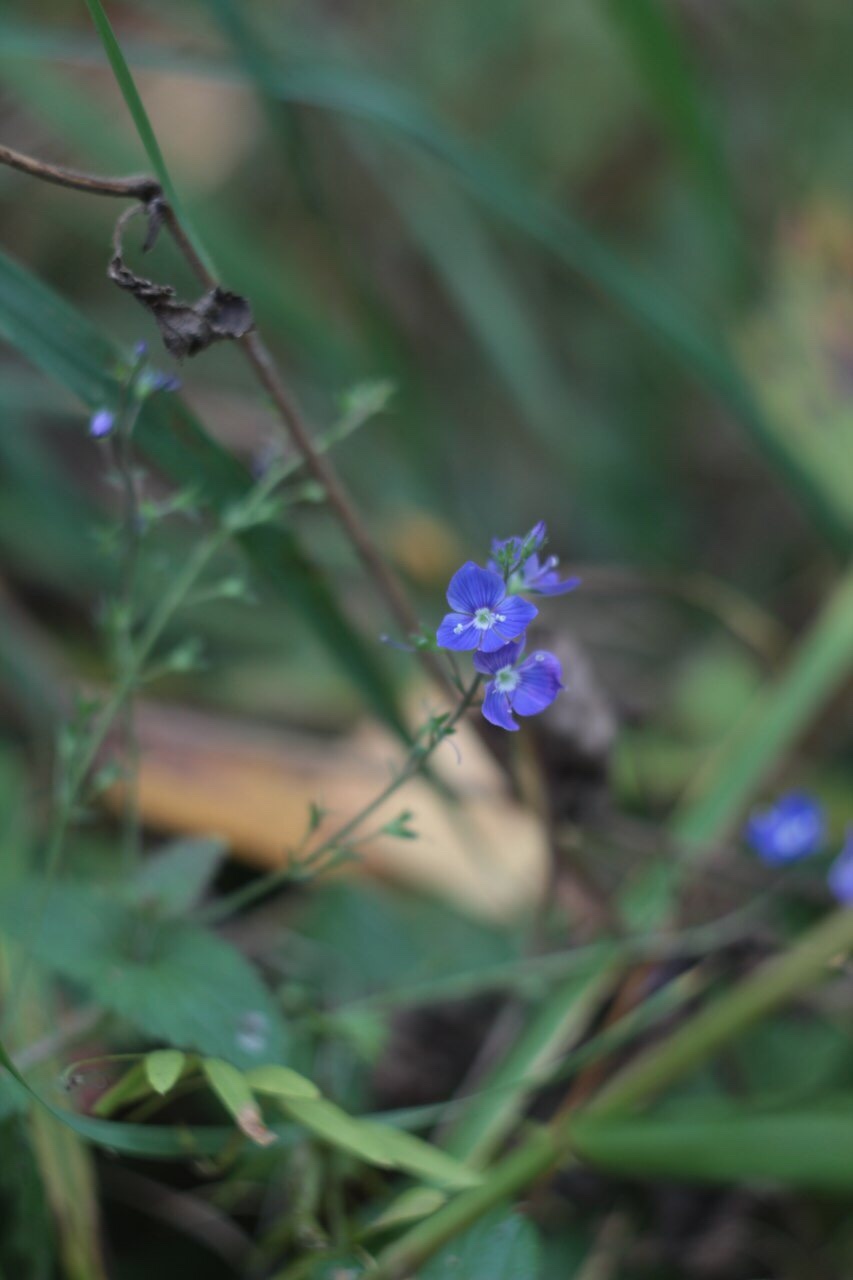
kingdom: Plantae
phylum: Tracheophyta
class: Magnoliopsida
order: Lamiales
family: Plantaginaceae
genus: Veronica
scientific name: Veronica chamaedrys
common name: Germander speedwell
